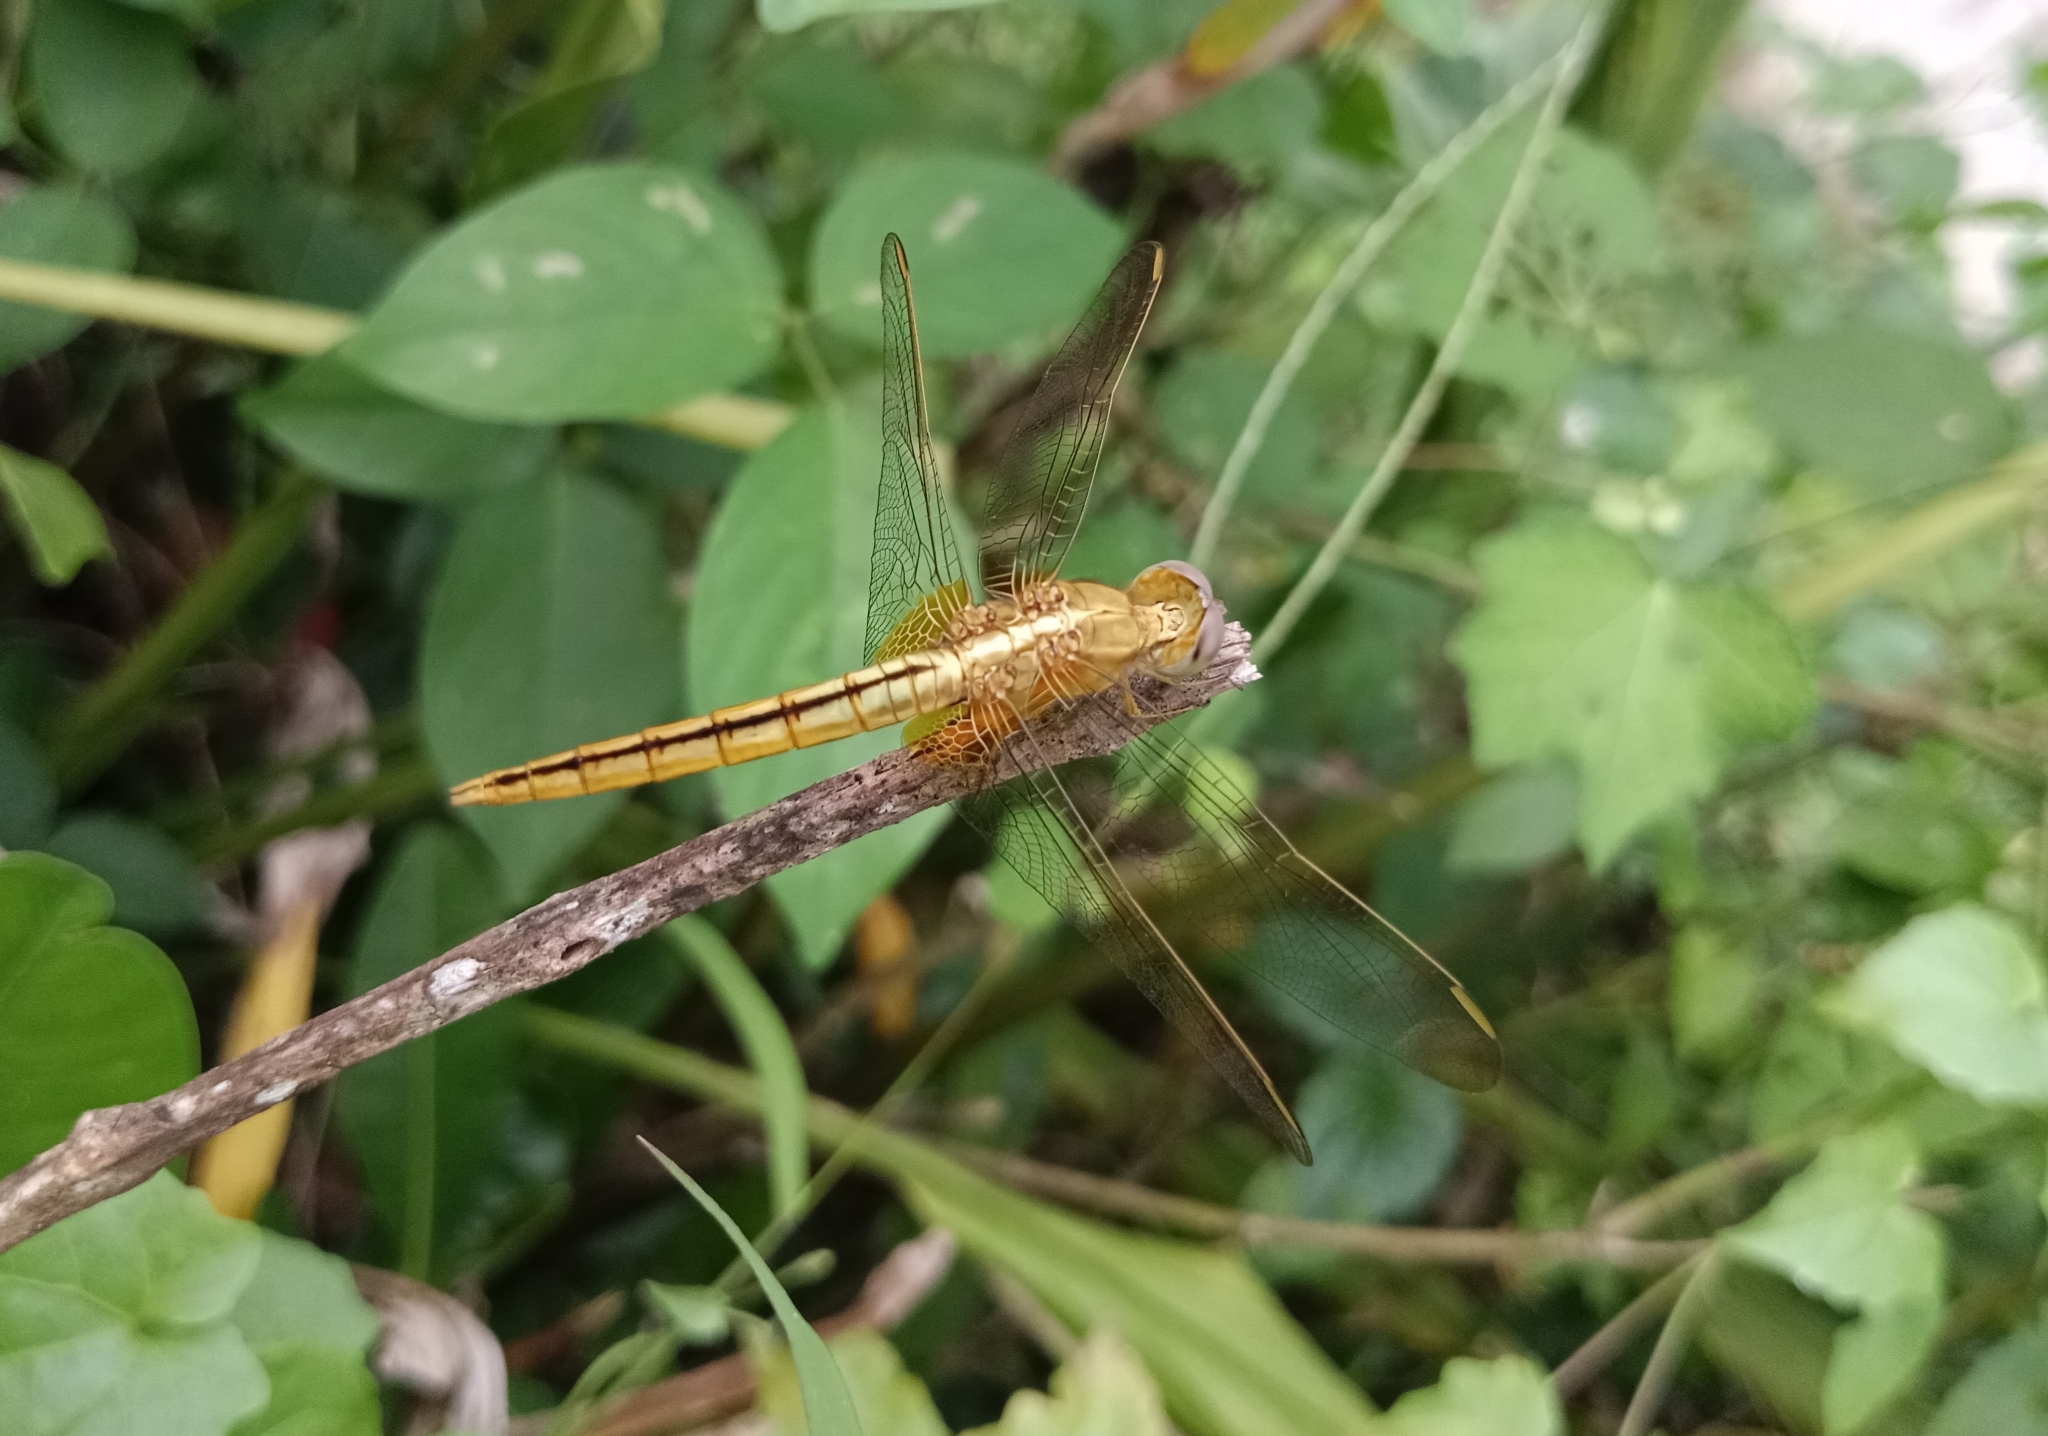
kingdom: Animalia
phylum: Arthropoda
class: Insecta
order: Odonata
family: Libellulidae
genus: Crocothemis
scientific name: Crocothemis servilia
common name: Scarlet skimmer
